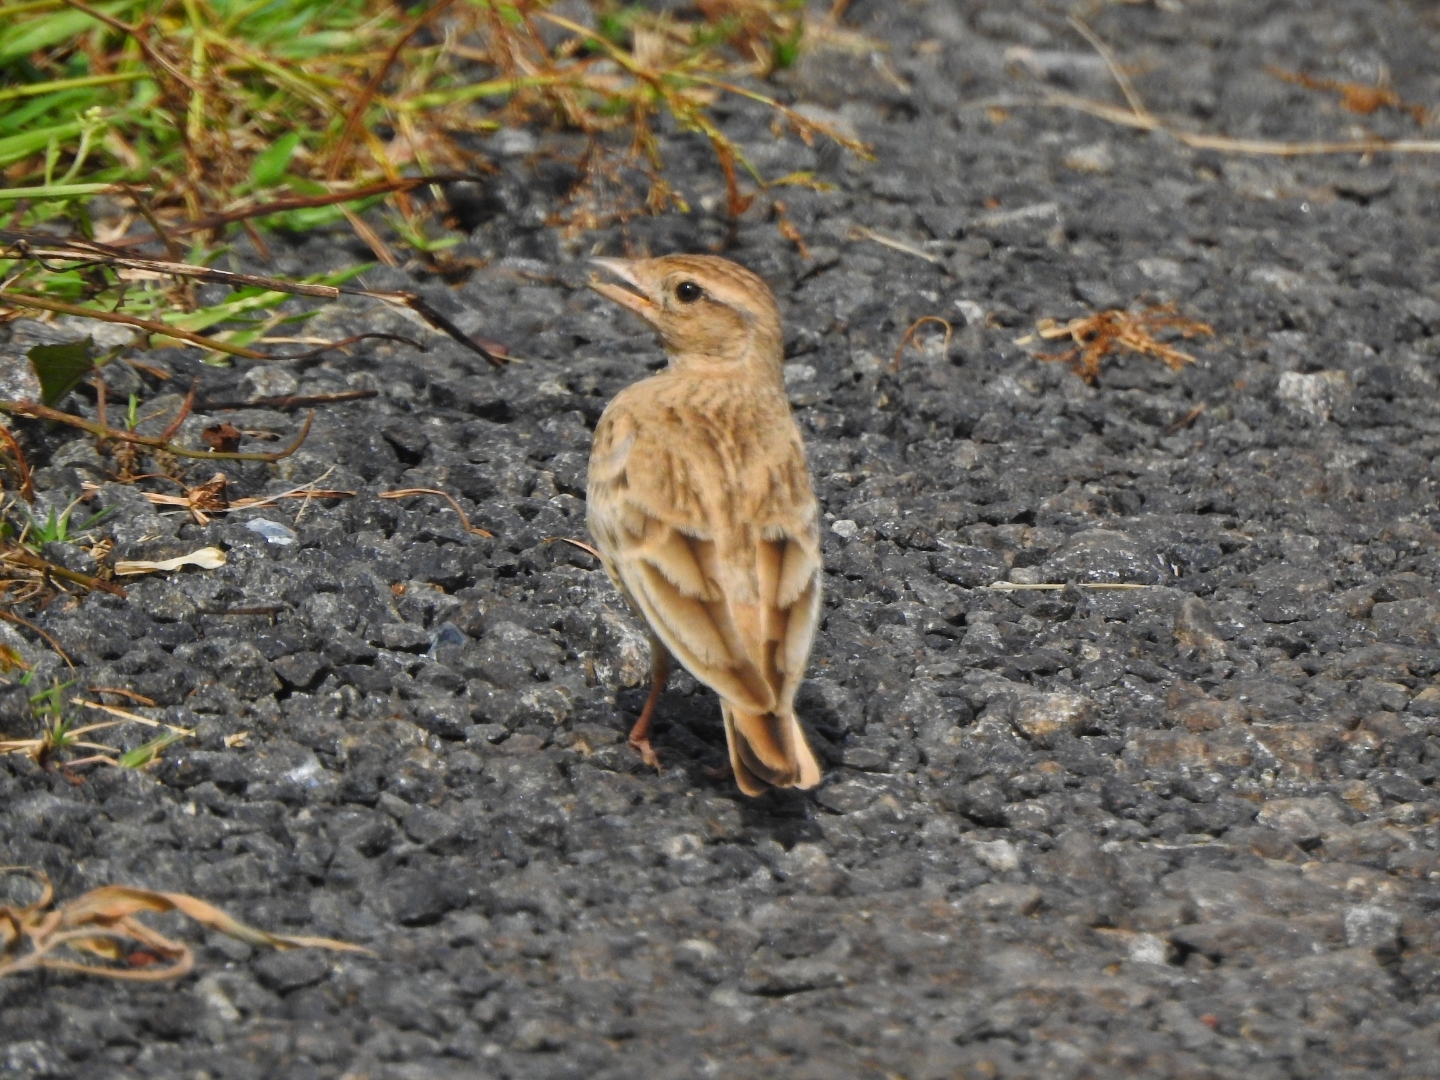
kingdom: Animalia
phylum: Chordata
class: Aves
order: Passeriformes
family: Alaudidae
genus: Calandrella
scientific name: Calandrella brachydactyla
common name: Greater short-toed lark
